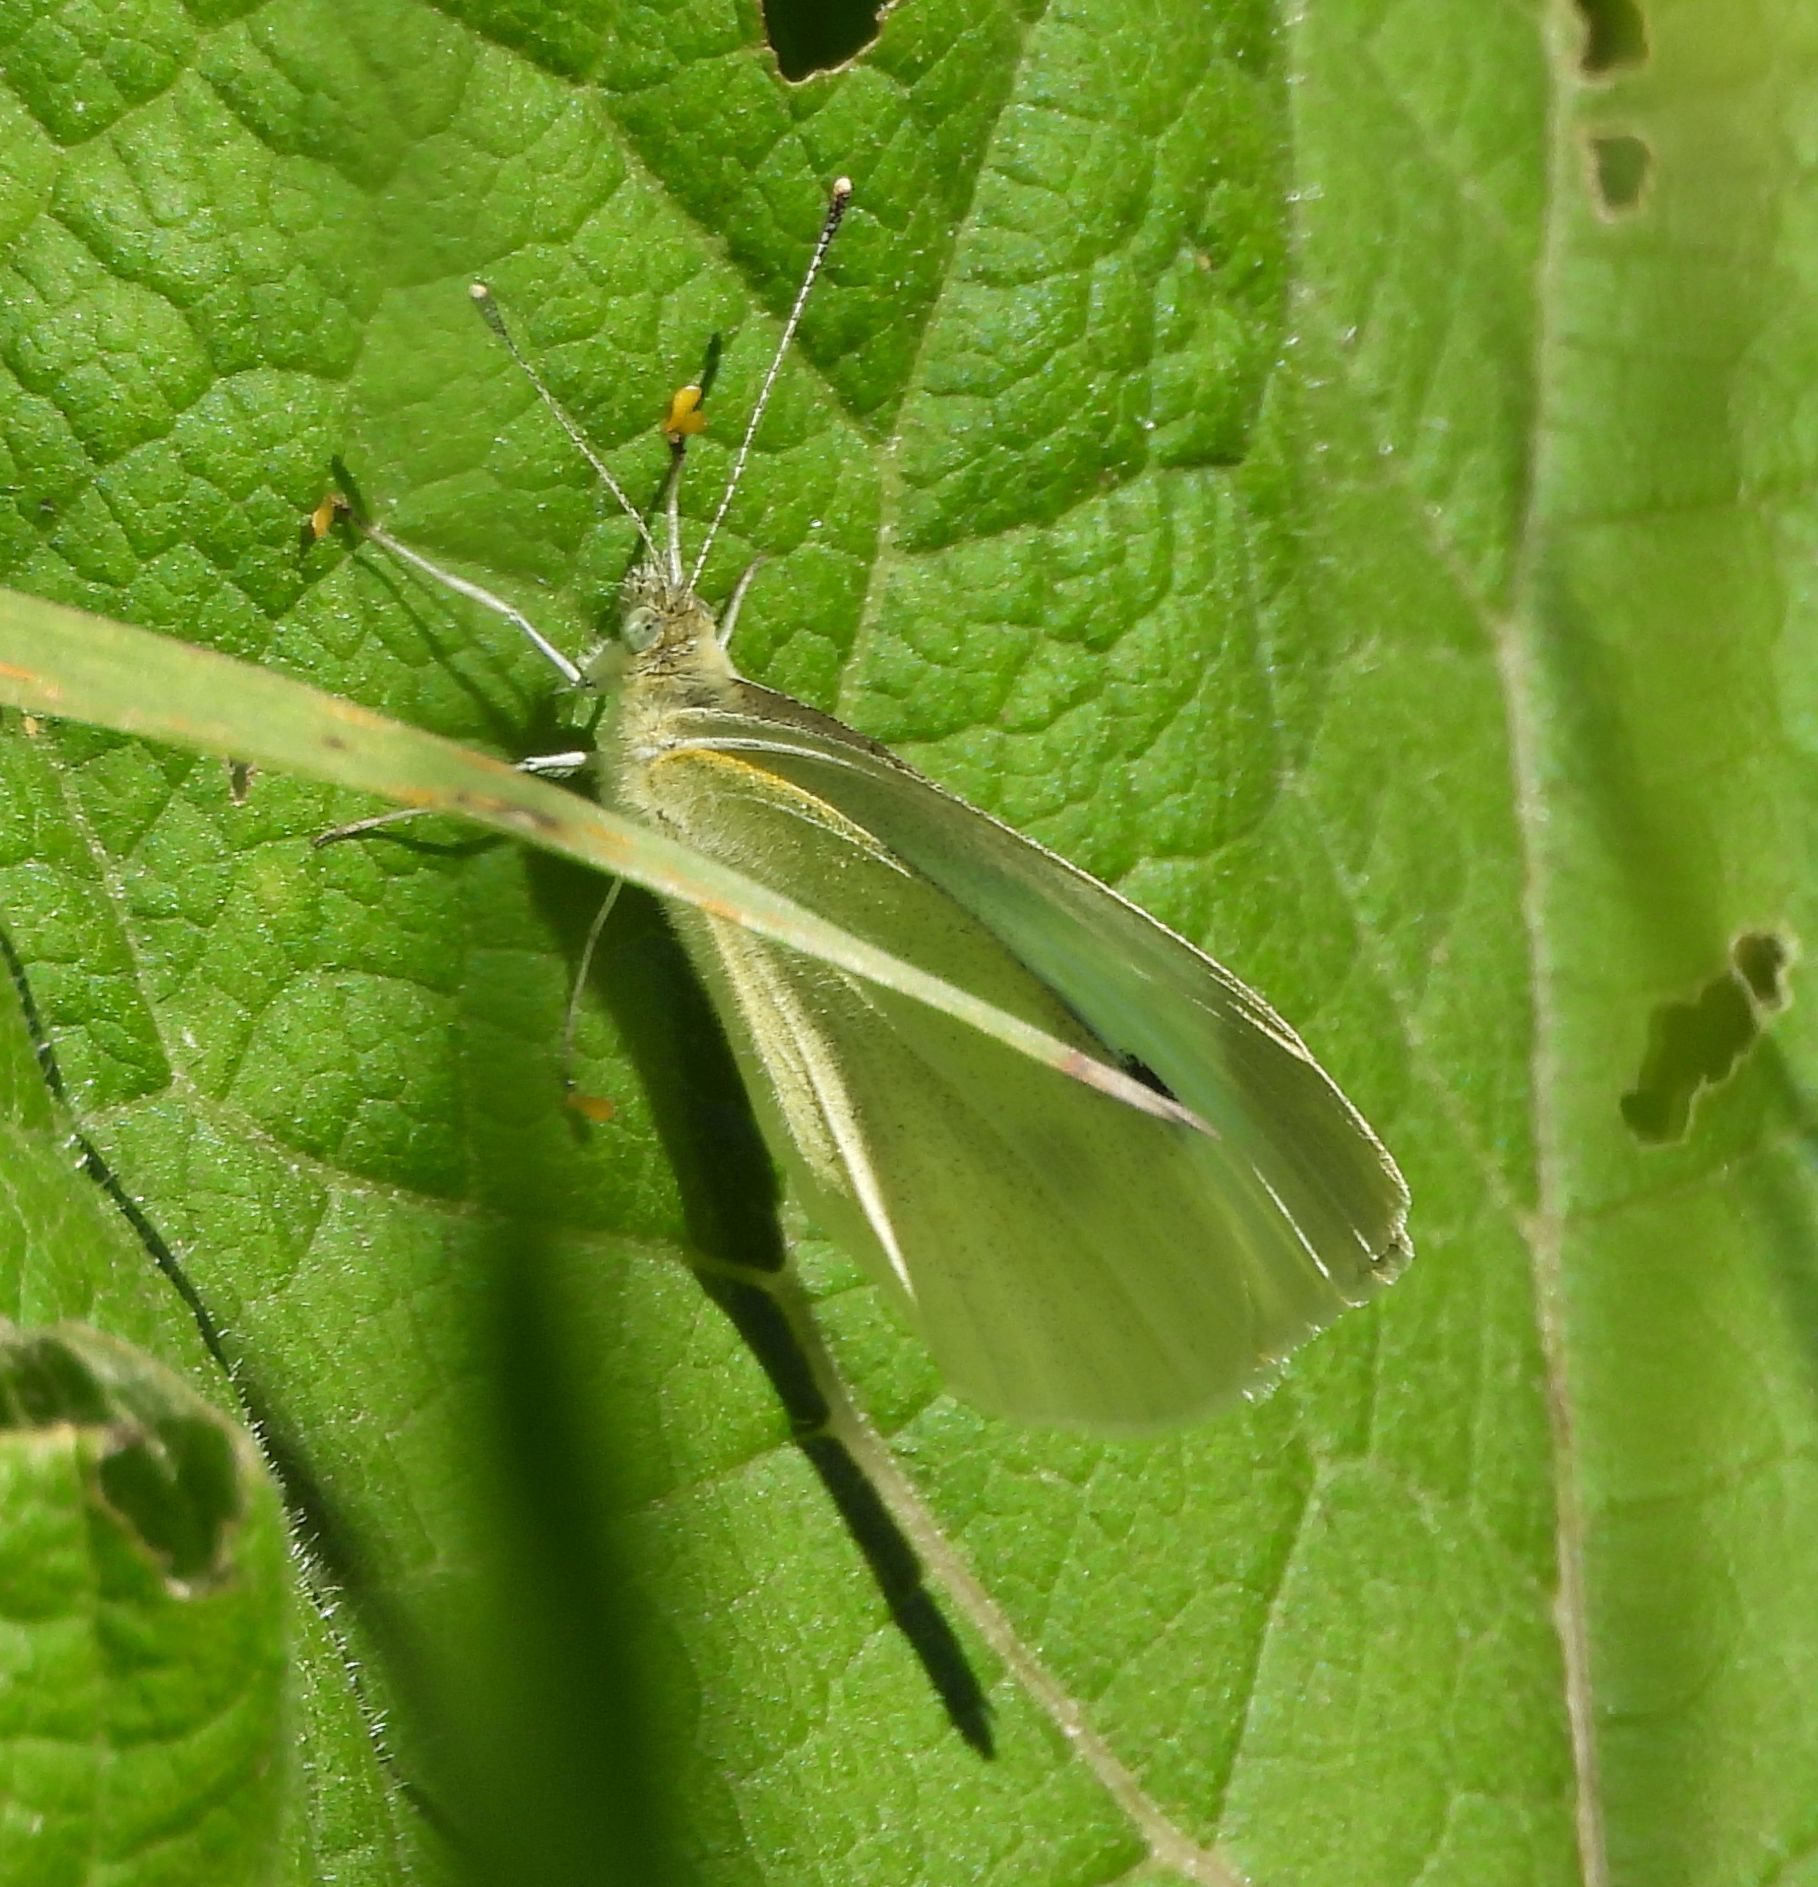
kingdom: Animalia
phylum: Arthropoda
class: Insecta
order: Lepidoptera
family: Pieridae
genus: Pieris
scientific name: Pieris rapae
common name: Small white
